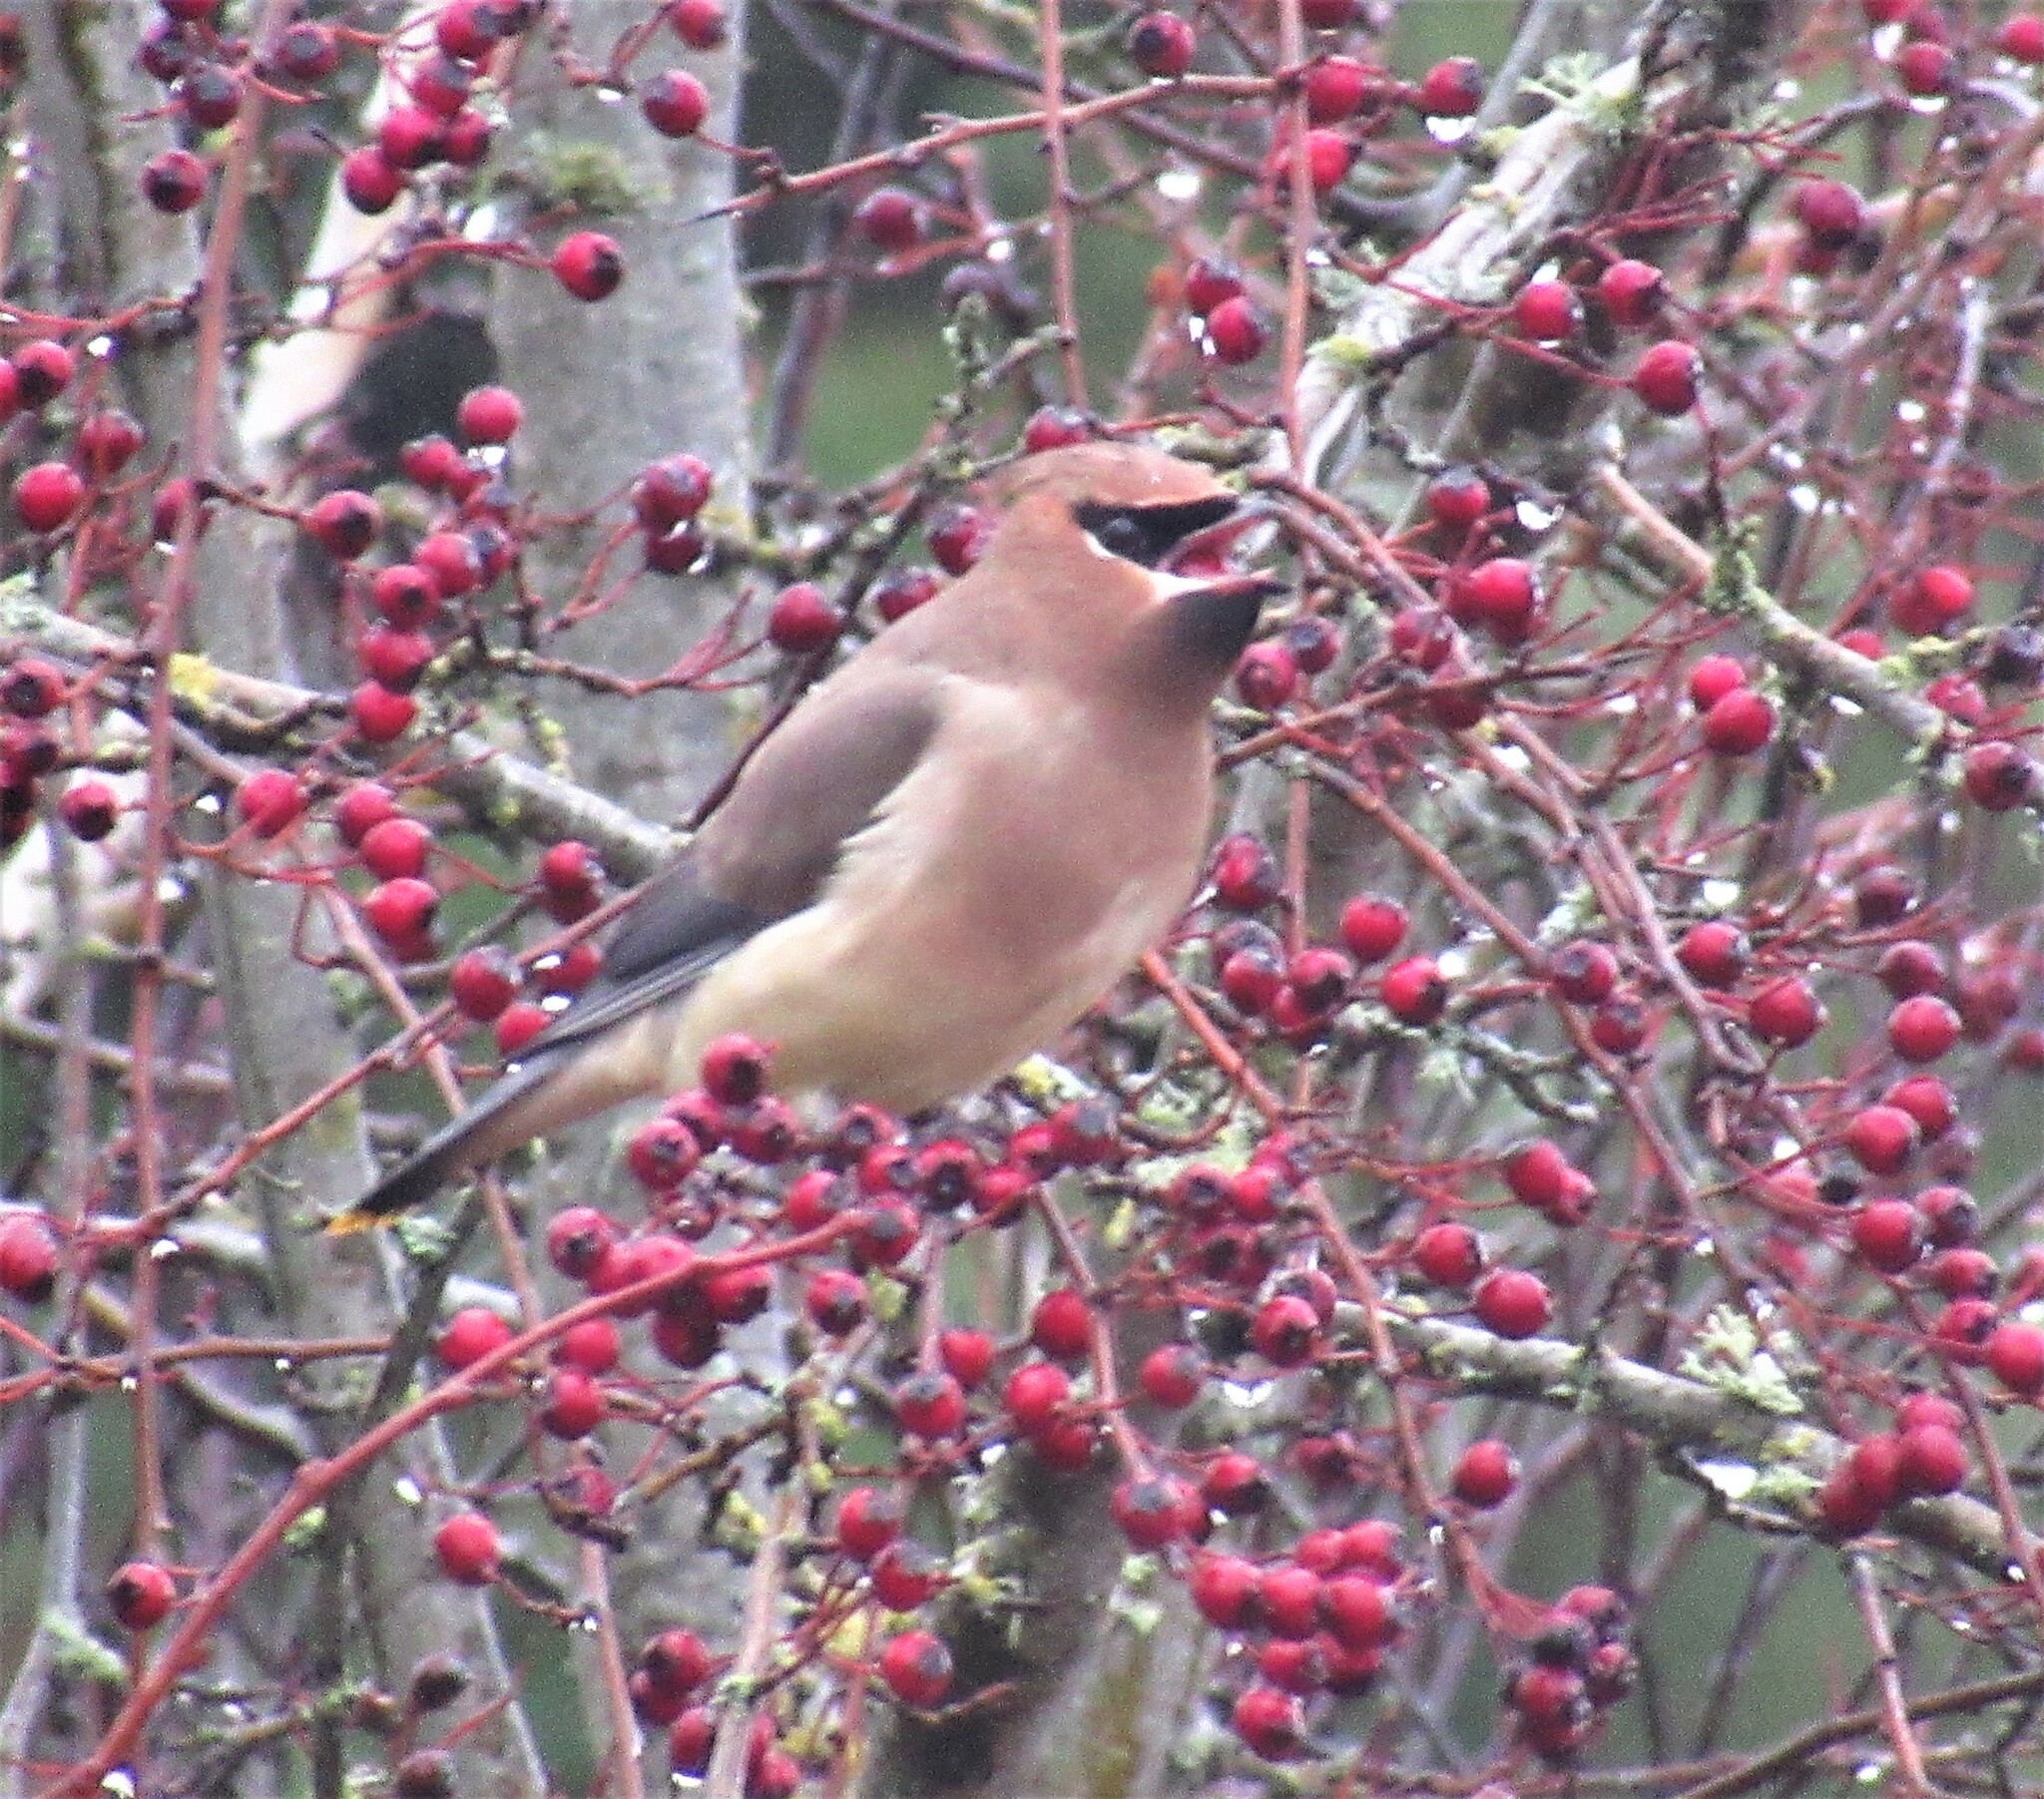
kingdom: Animalia
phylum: Chordata
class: Aves
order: Passeriformes
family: Bombycillidae
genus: Bombycilla
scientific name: Bombycilla cedrorum
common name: Cedar waxwing
